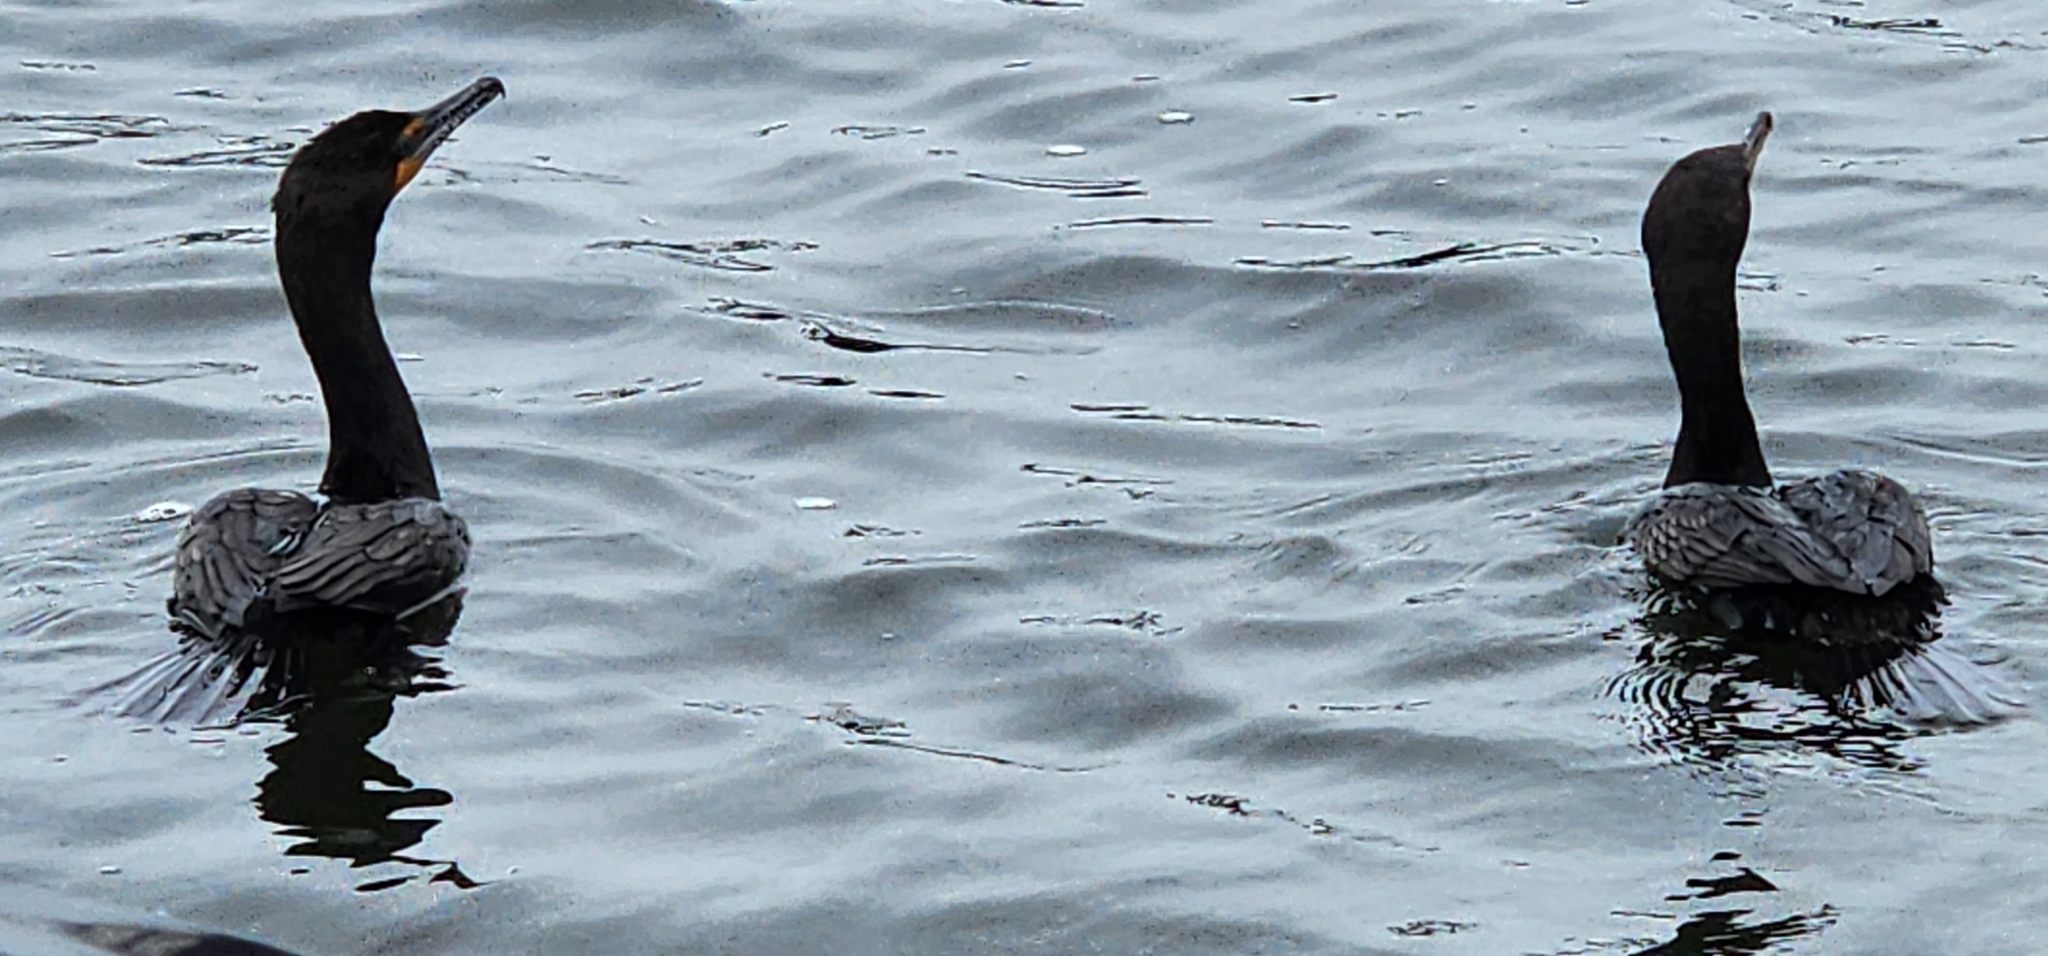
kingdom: Animalia
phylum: Chordata
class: Aves
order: Suliformes
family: Phalacrocoracidae
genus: Phalacrocorax
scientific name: Phalacrocorax auritus
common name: Double-crested cormorant
